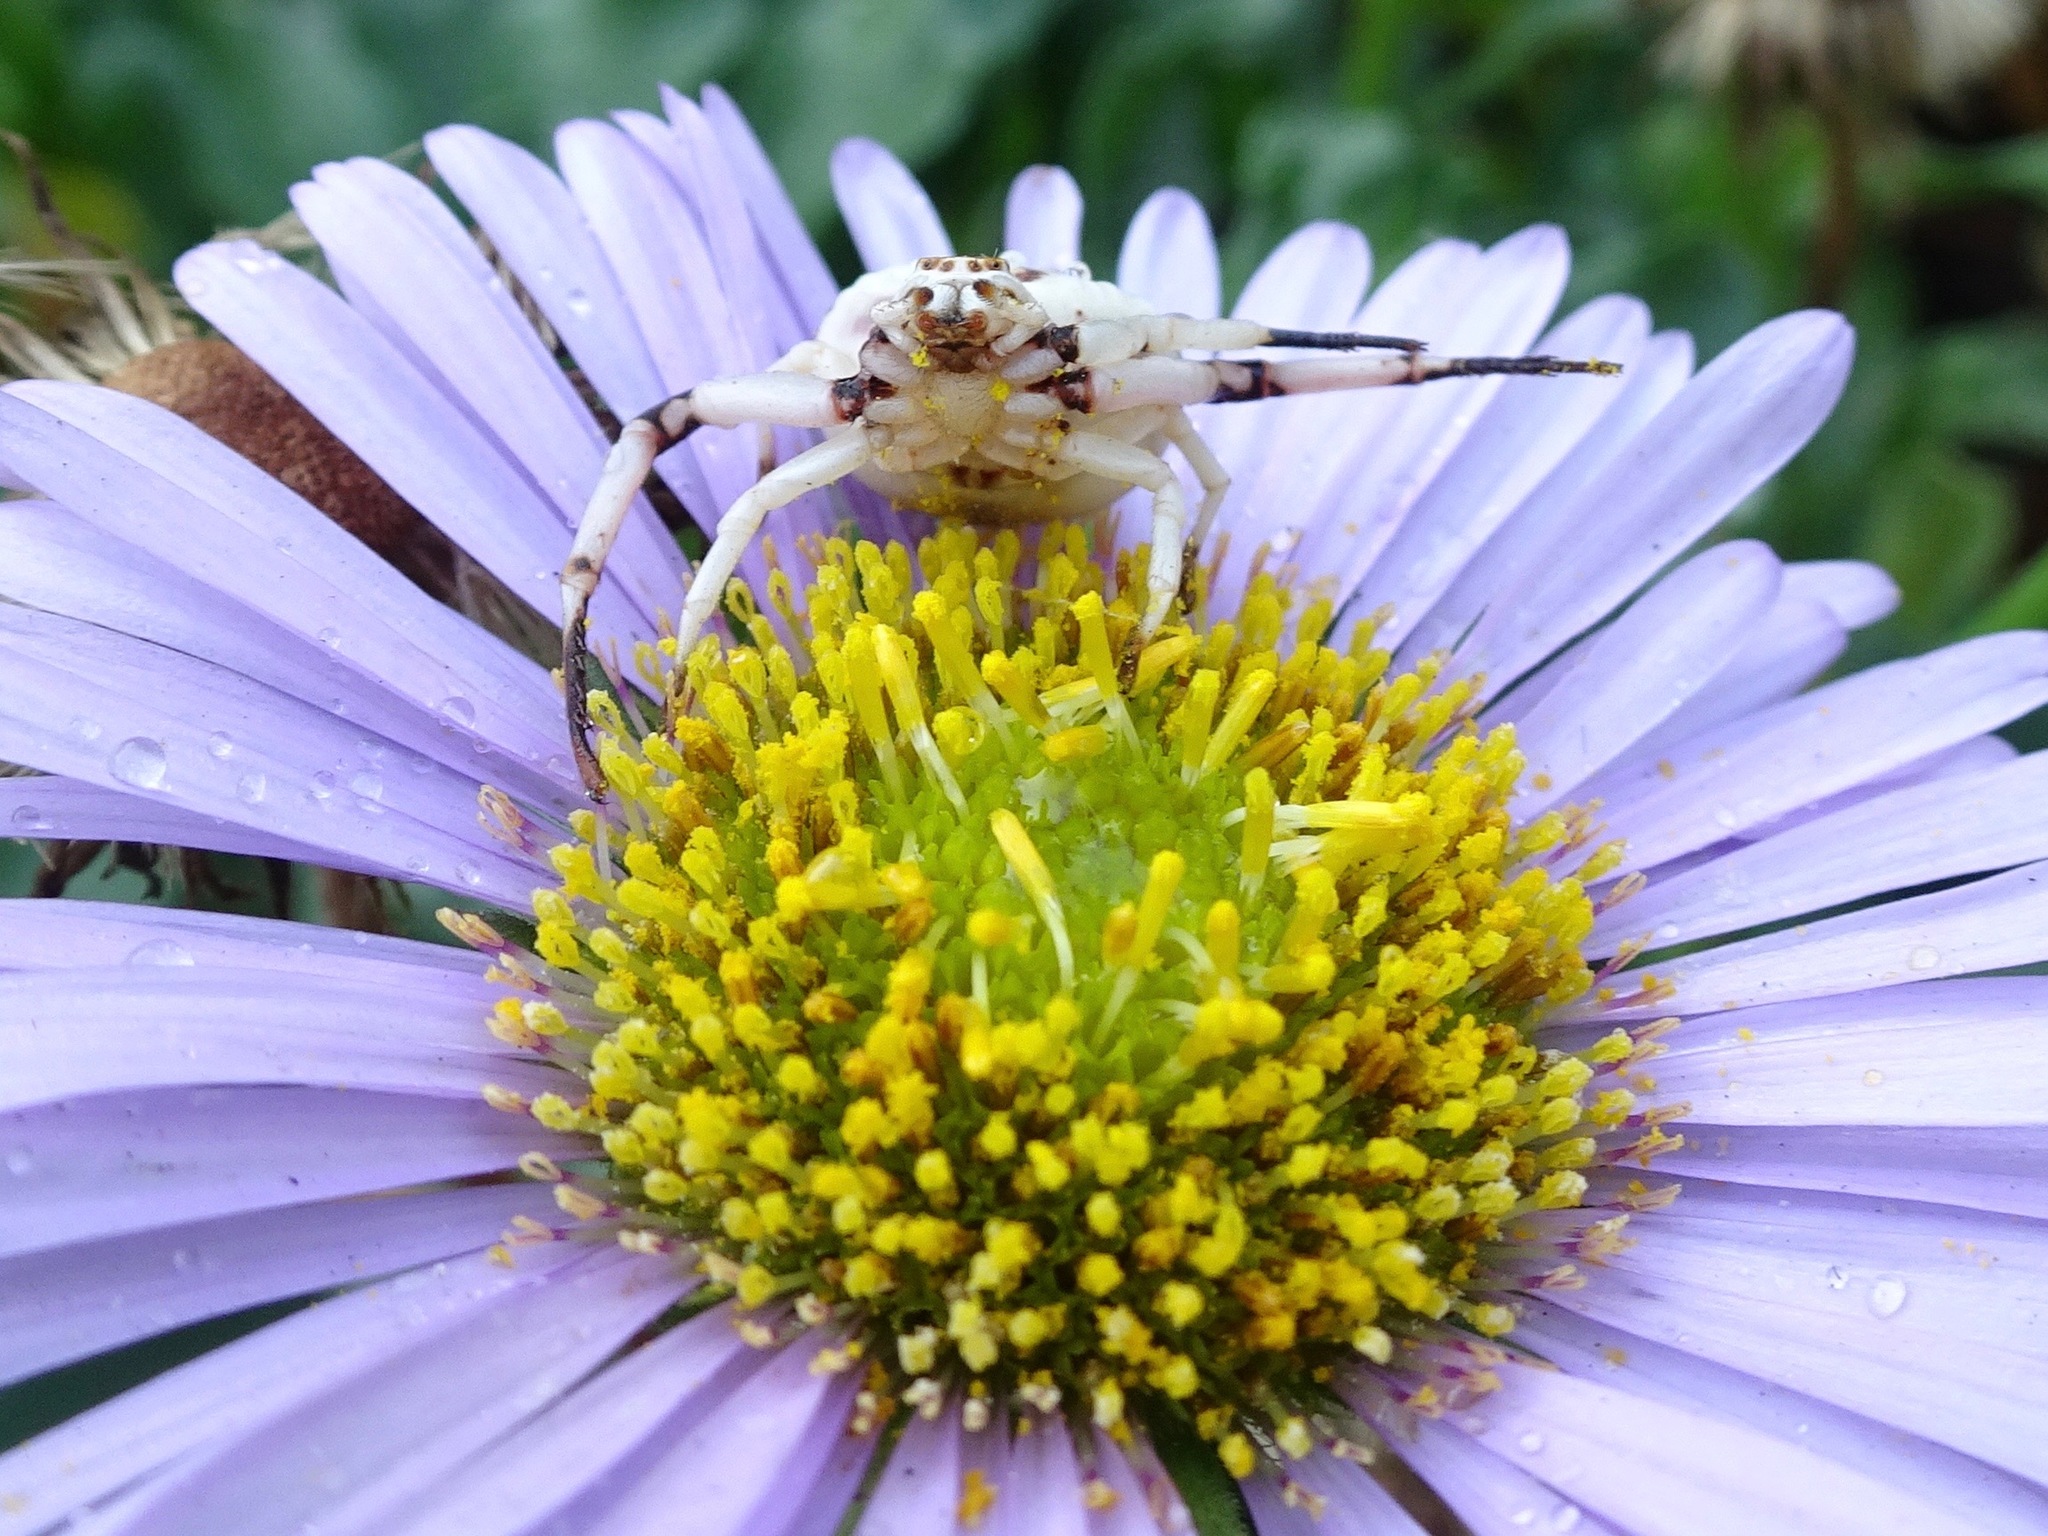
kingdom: Animalia
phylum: Arthropoda
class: Arachnida
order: Araneae
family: Thomisidae
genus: Misumenoides
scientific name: Misumenoides formosipes
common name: White-banded crab spider
